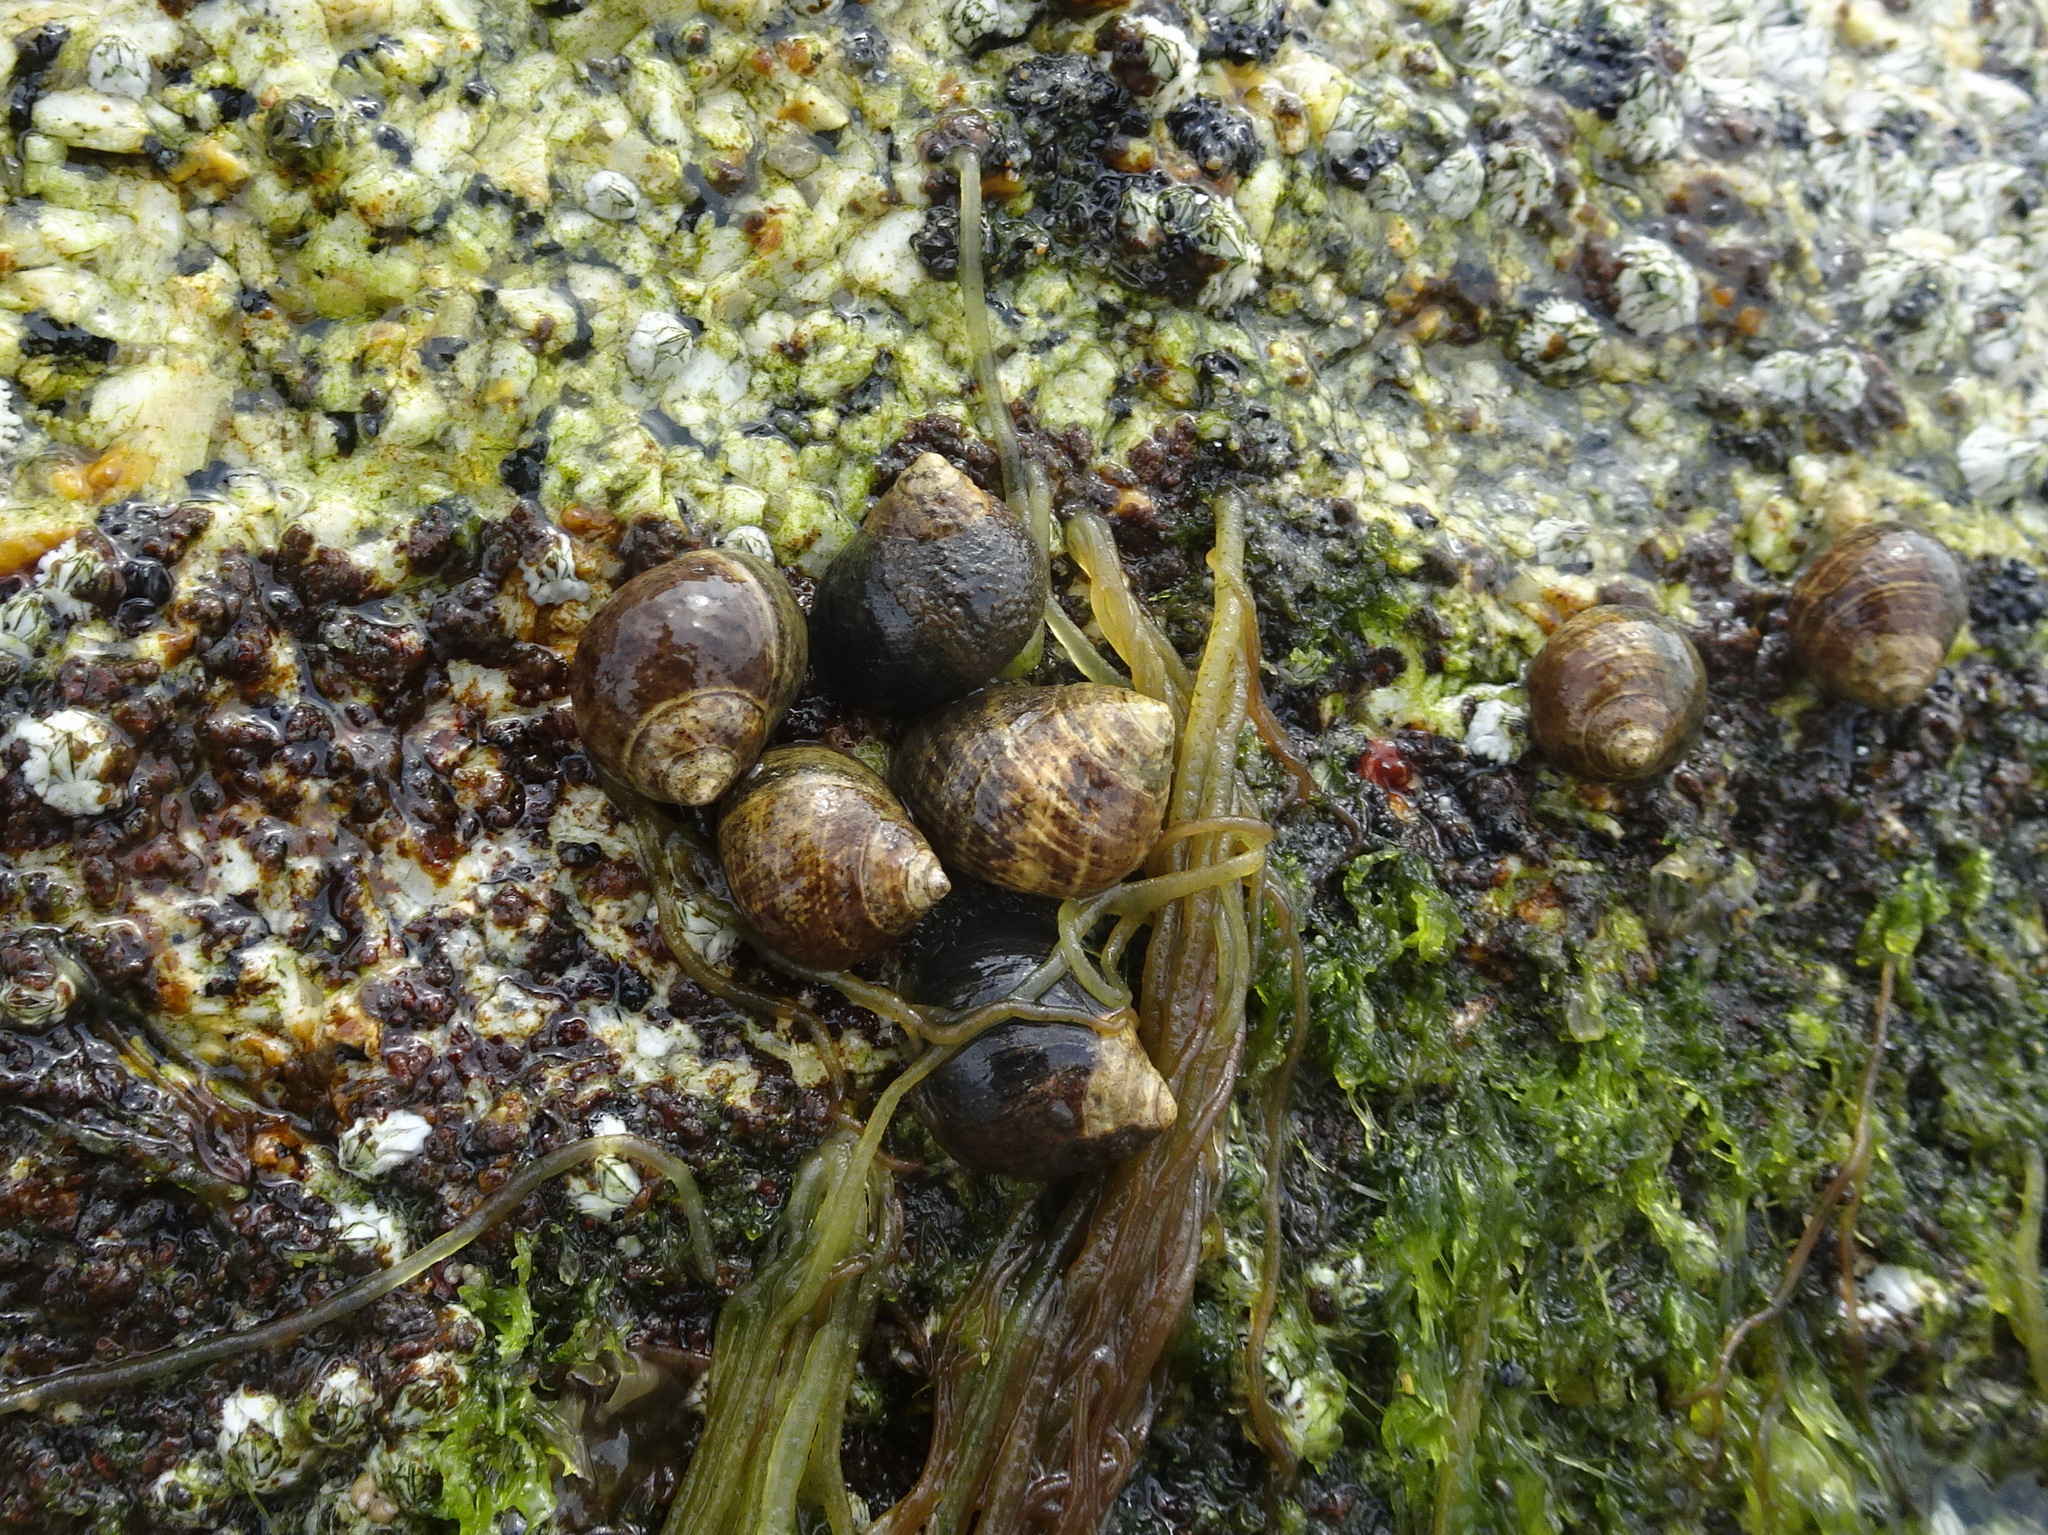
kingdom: Animalia
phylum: Mollusca
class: Gastropoda
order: Littorinimorpha
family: Littorinidae
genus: Littorina
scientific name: Littorina littorea
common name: Common periwinkle
